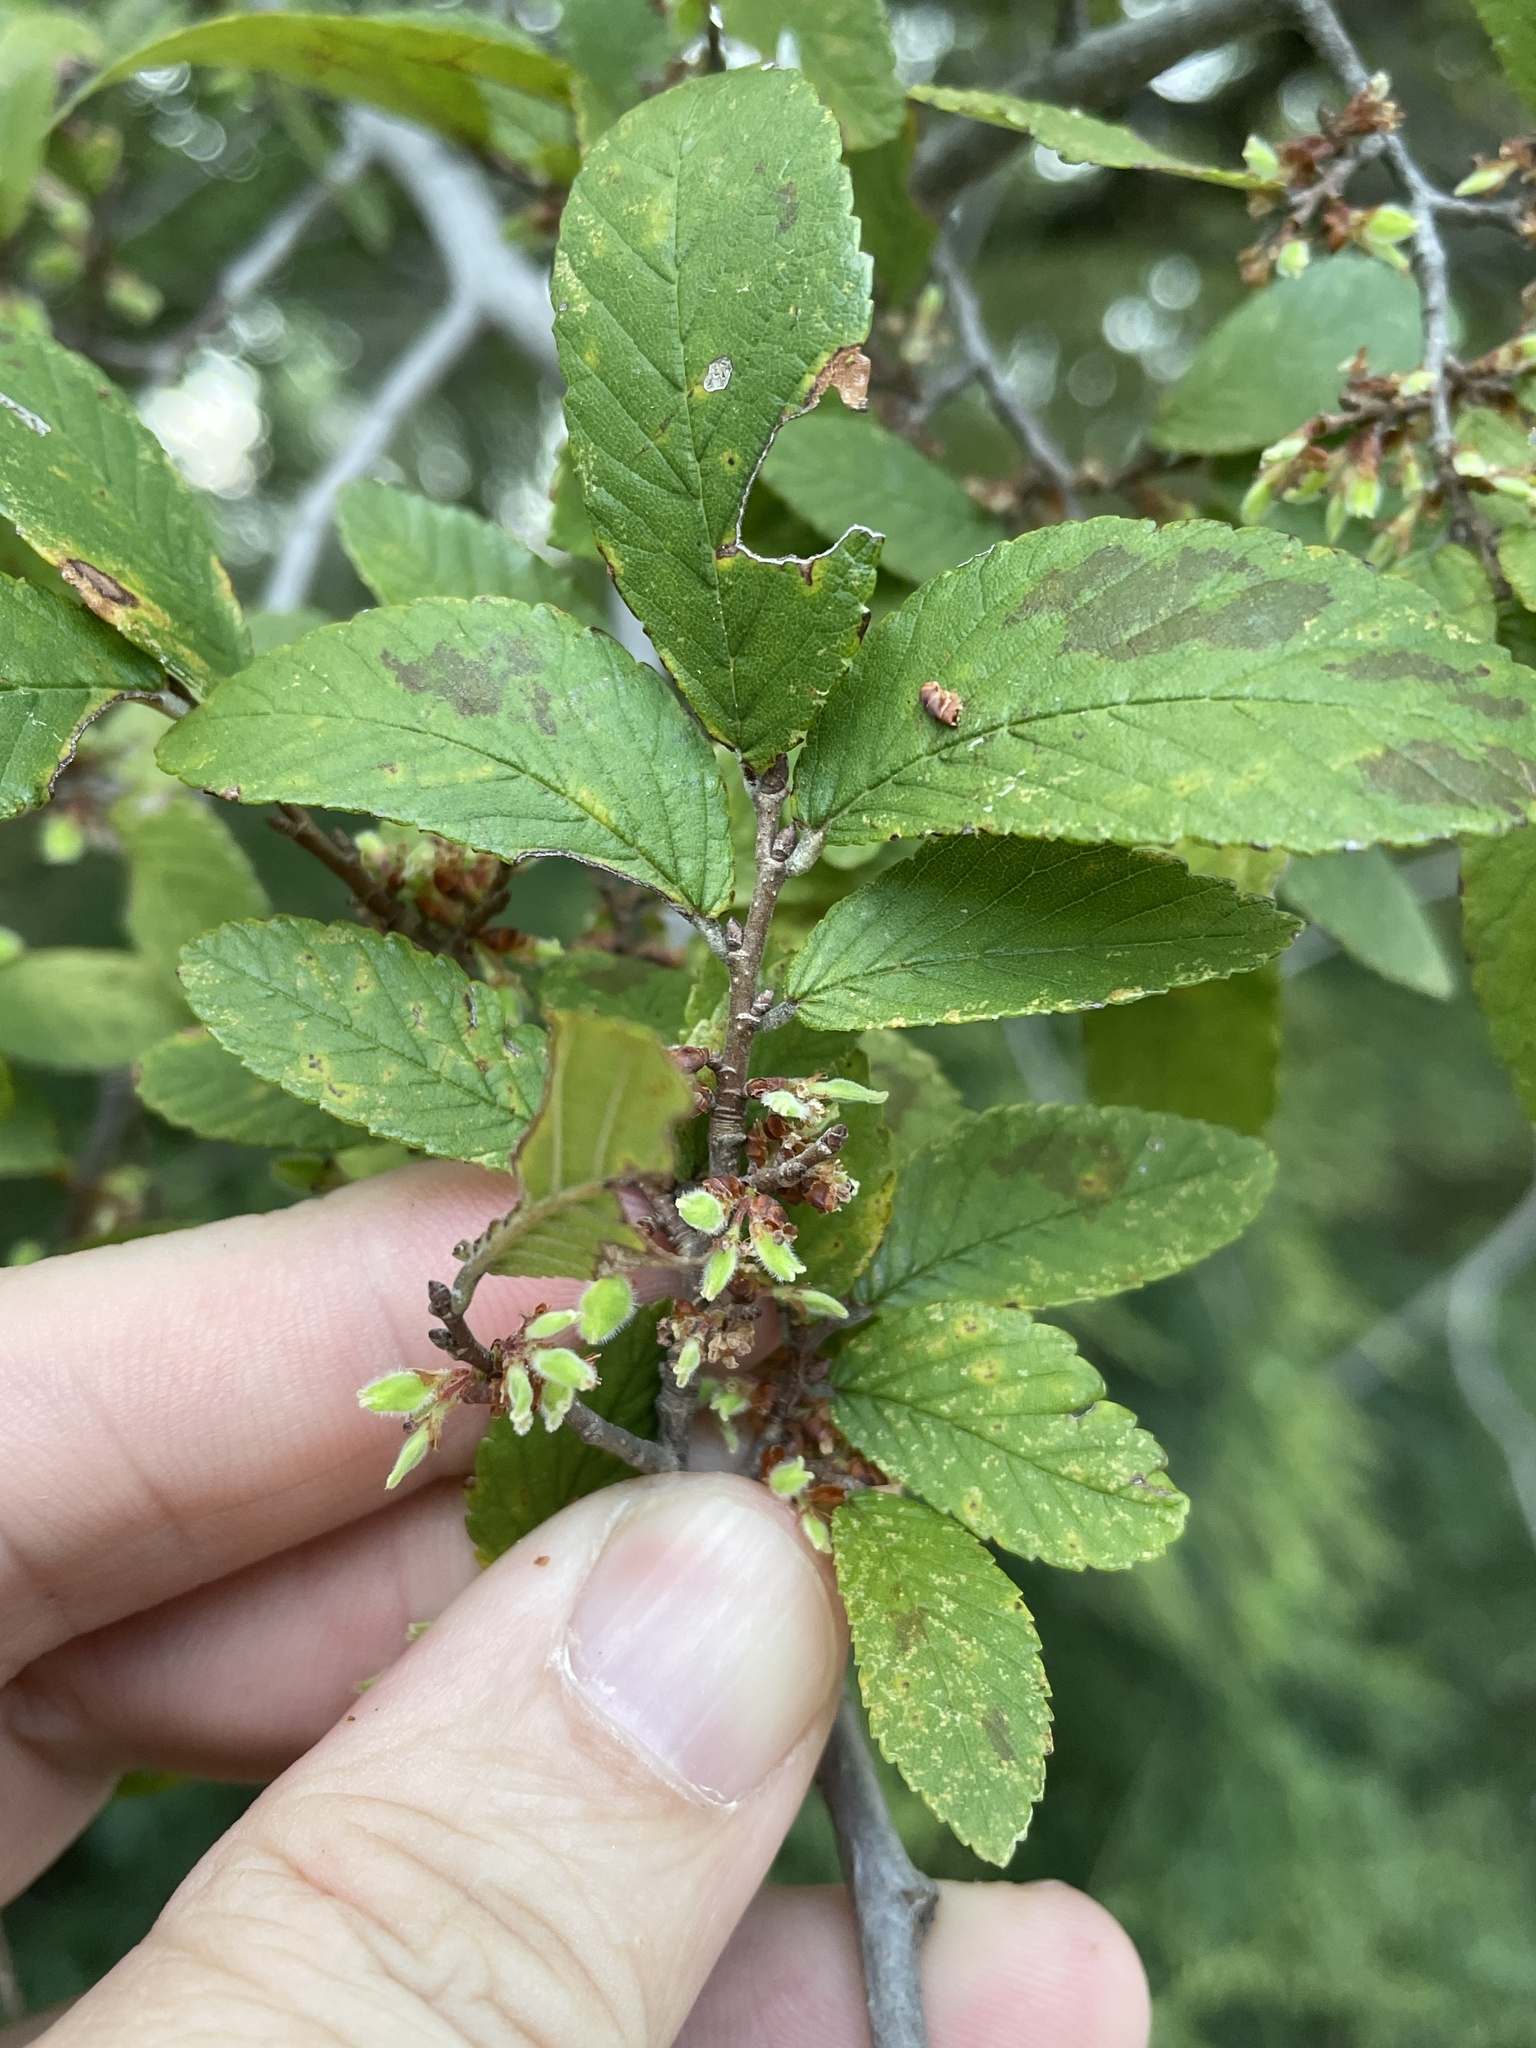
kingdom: Plantae
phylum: Tracheophyta
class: Magnoliopsida
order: Rosales
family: Ulmaceae
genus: Ulmus
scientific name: Ulmus crassifolia
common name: Basket elm
